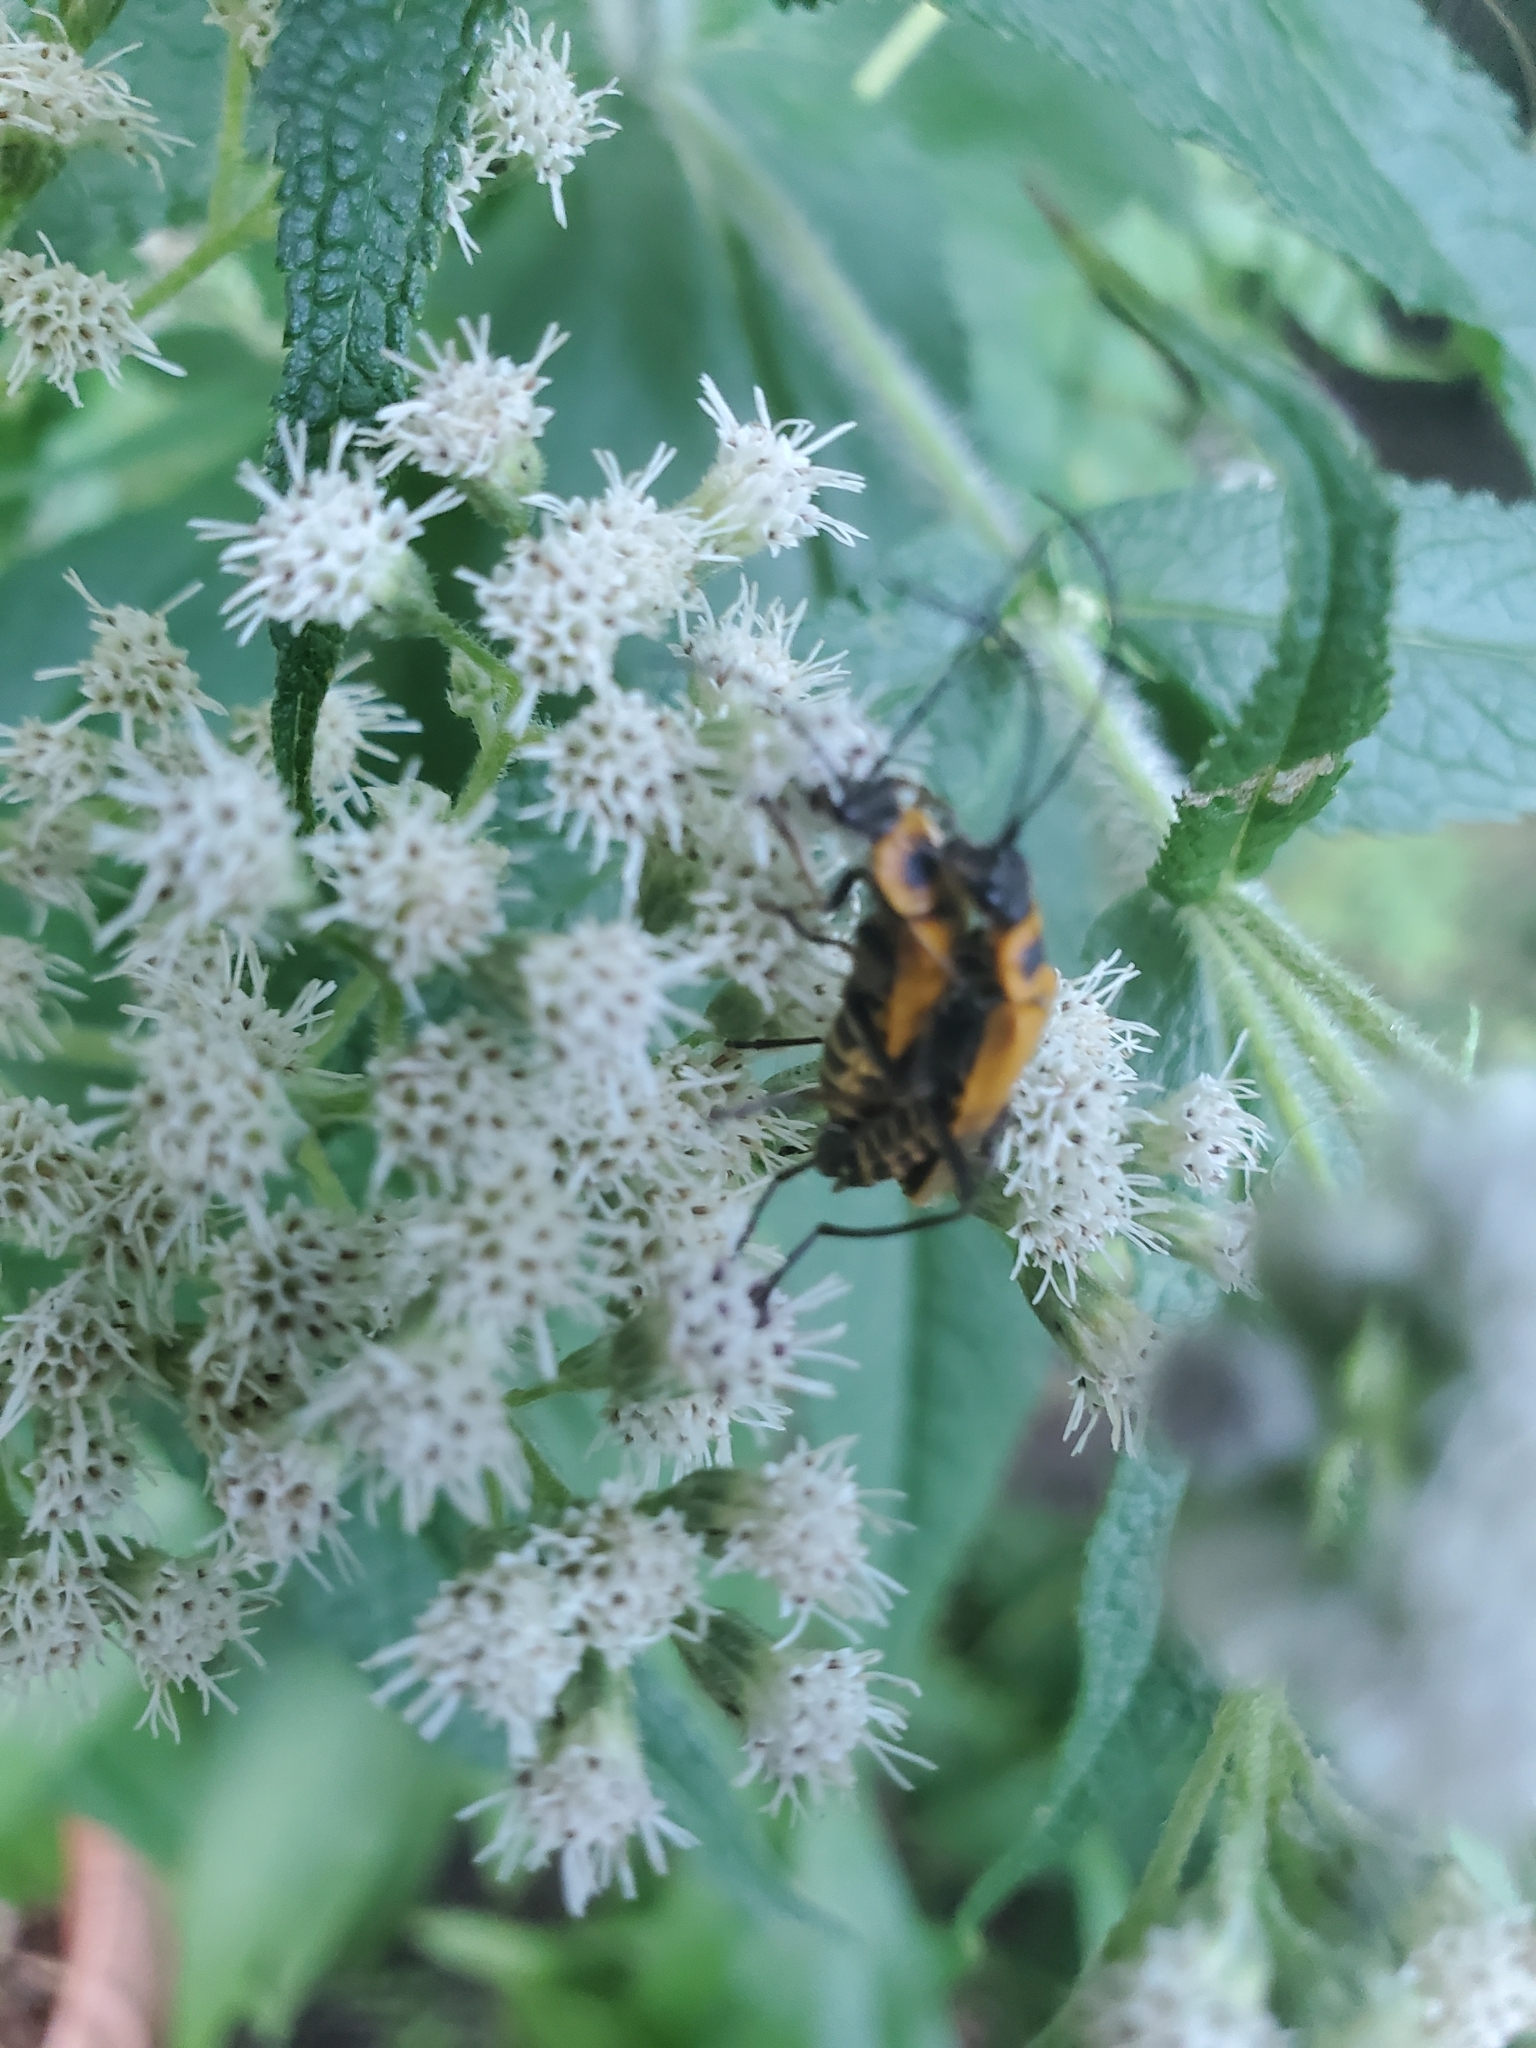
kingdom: Animalia
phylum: Arthropoda
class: Insecta
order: Coleoptera
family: Cantharidae
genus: Chauliognathus
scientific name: Chauliognathus pensylvanicus
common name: Goldenrod soldier beetle
